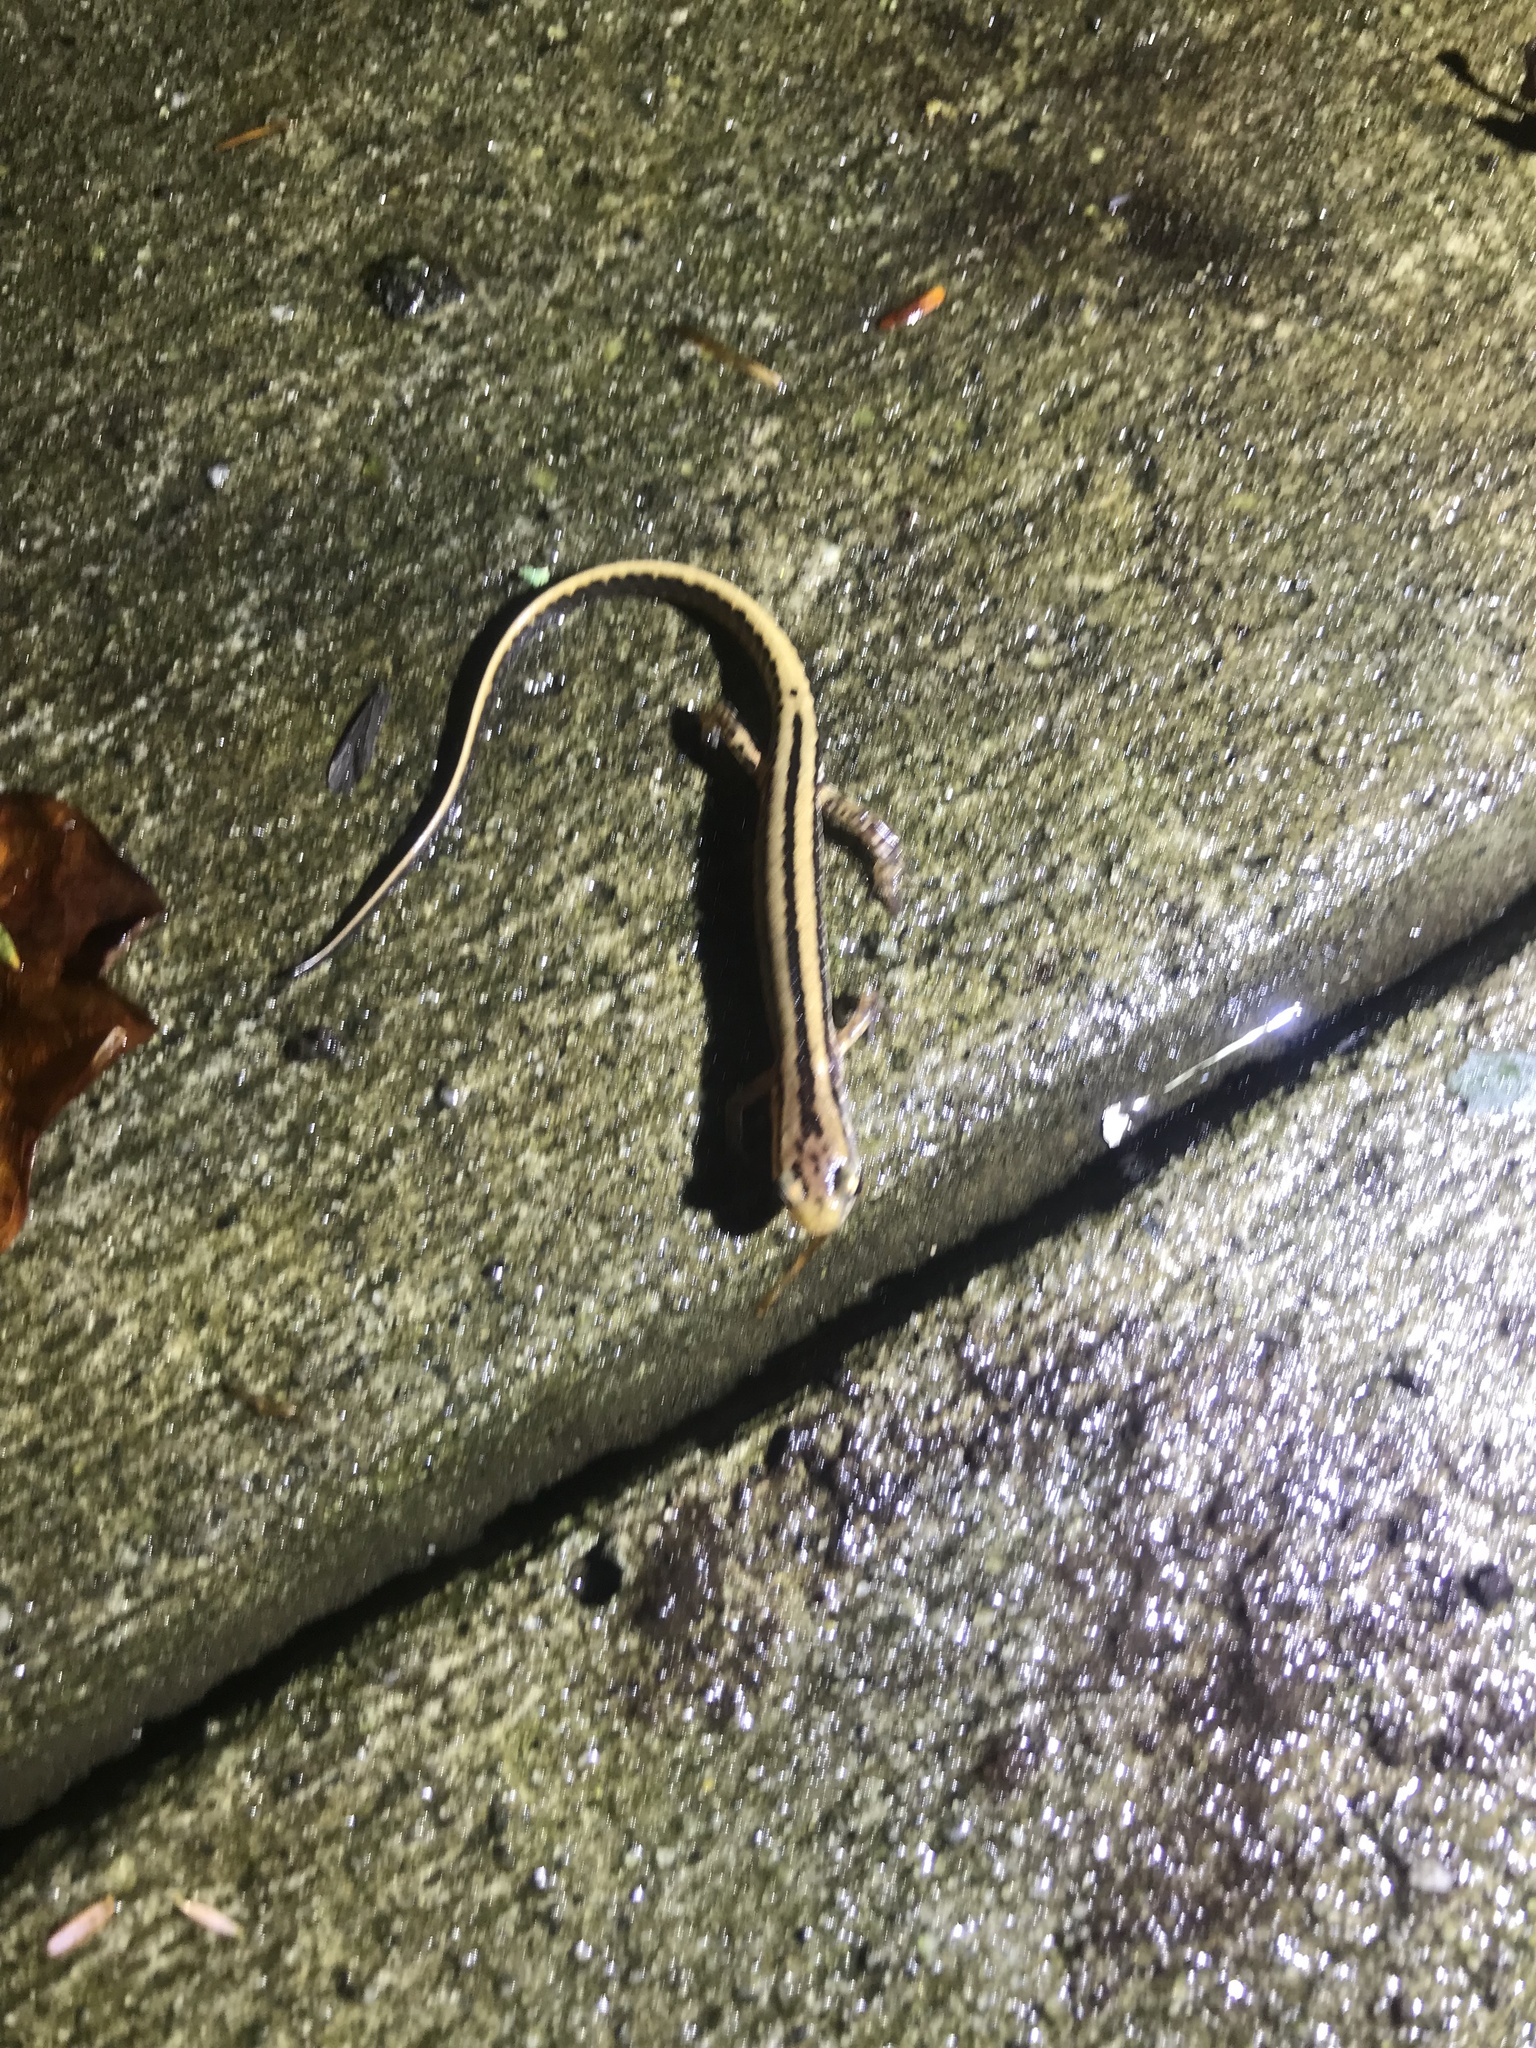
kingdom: Animalia
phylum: Chordata
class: Amphibia
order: Caudata
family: Plethodontidae
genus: Eurycea
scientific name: Eurycea guttolineata
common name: Three-lined salamander
